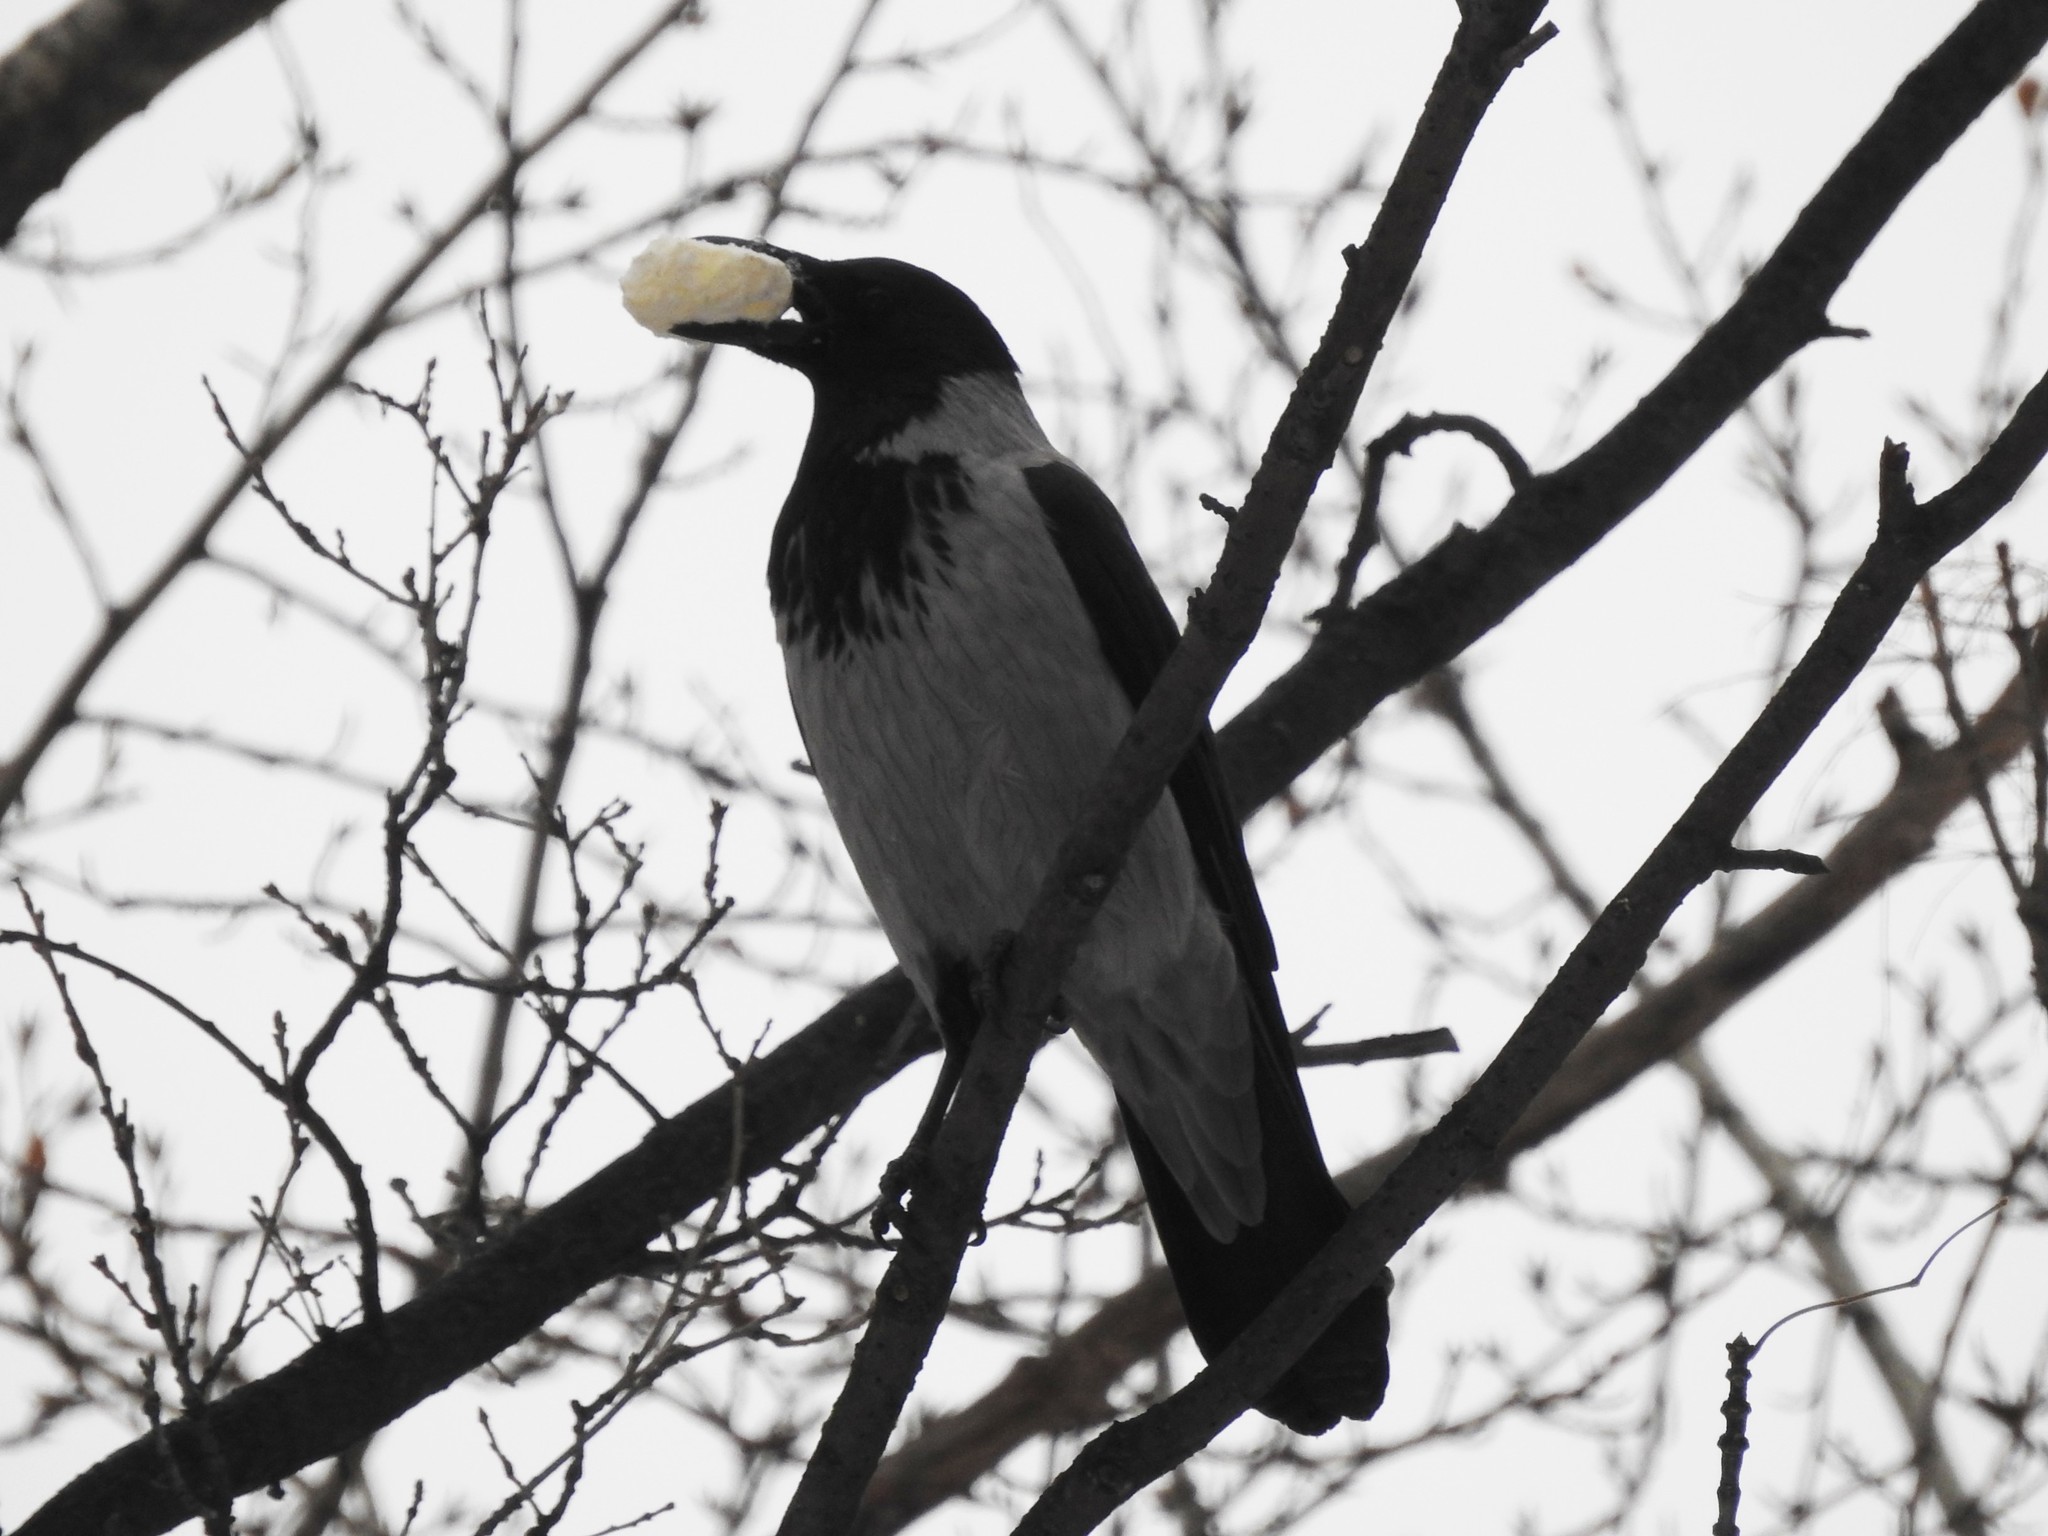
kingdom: Animalia
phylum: Chordata
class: Aves
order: Passeriformes
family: Corvidae
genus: Corvus
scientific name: Corvus cornix
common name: Hooded crow
